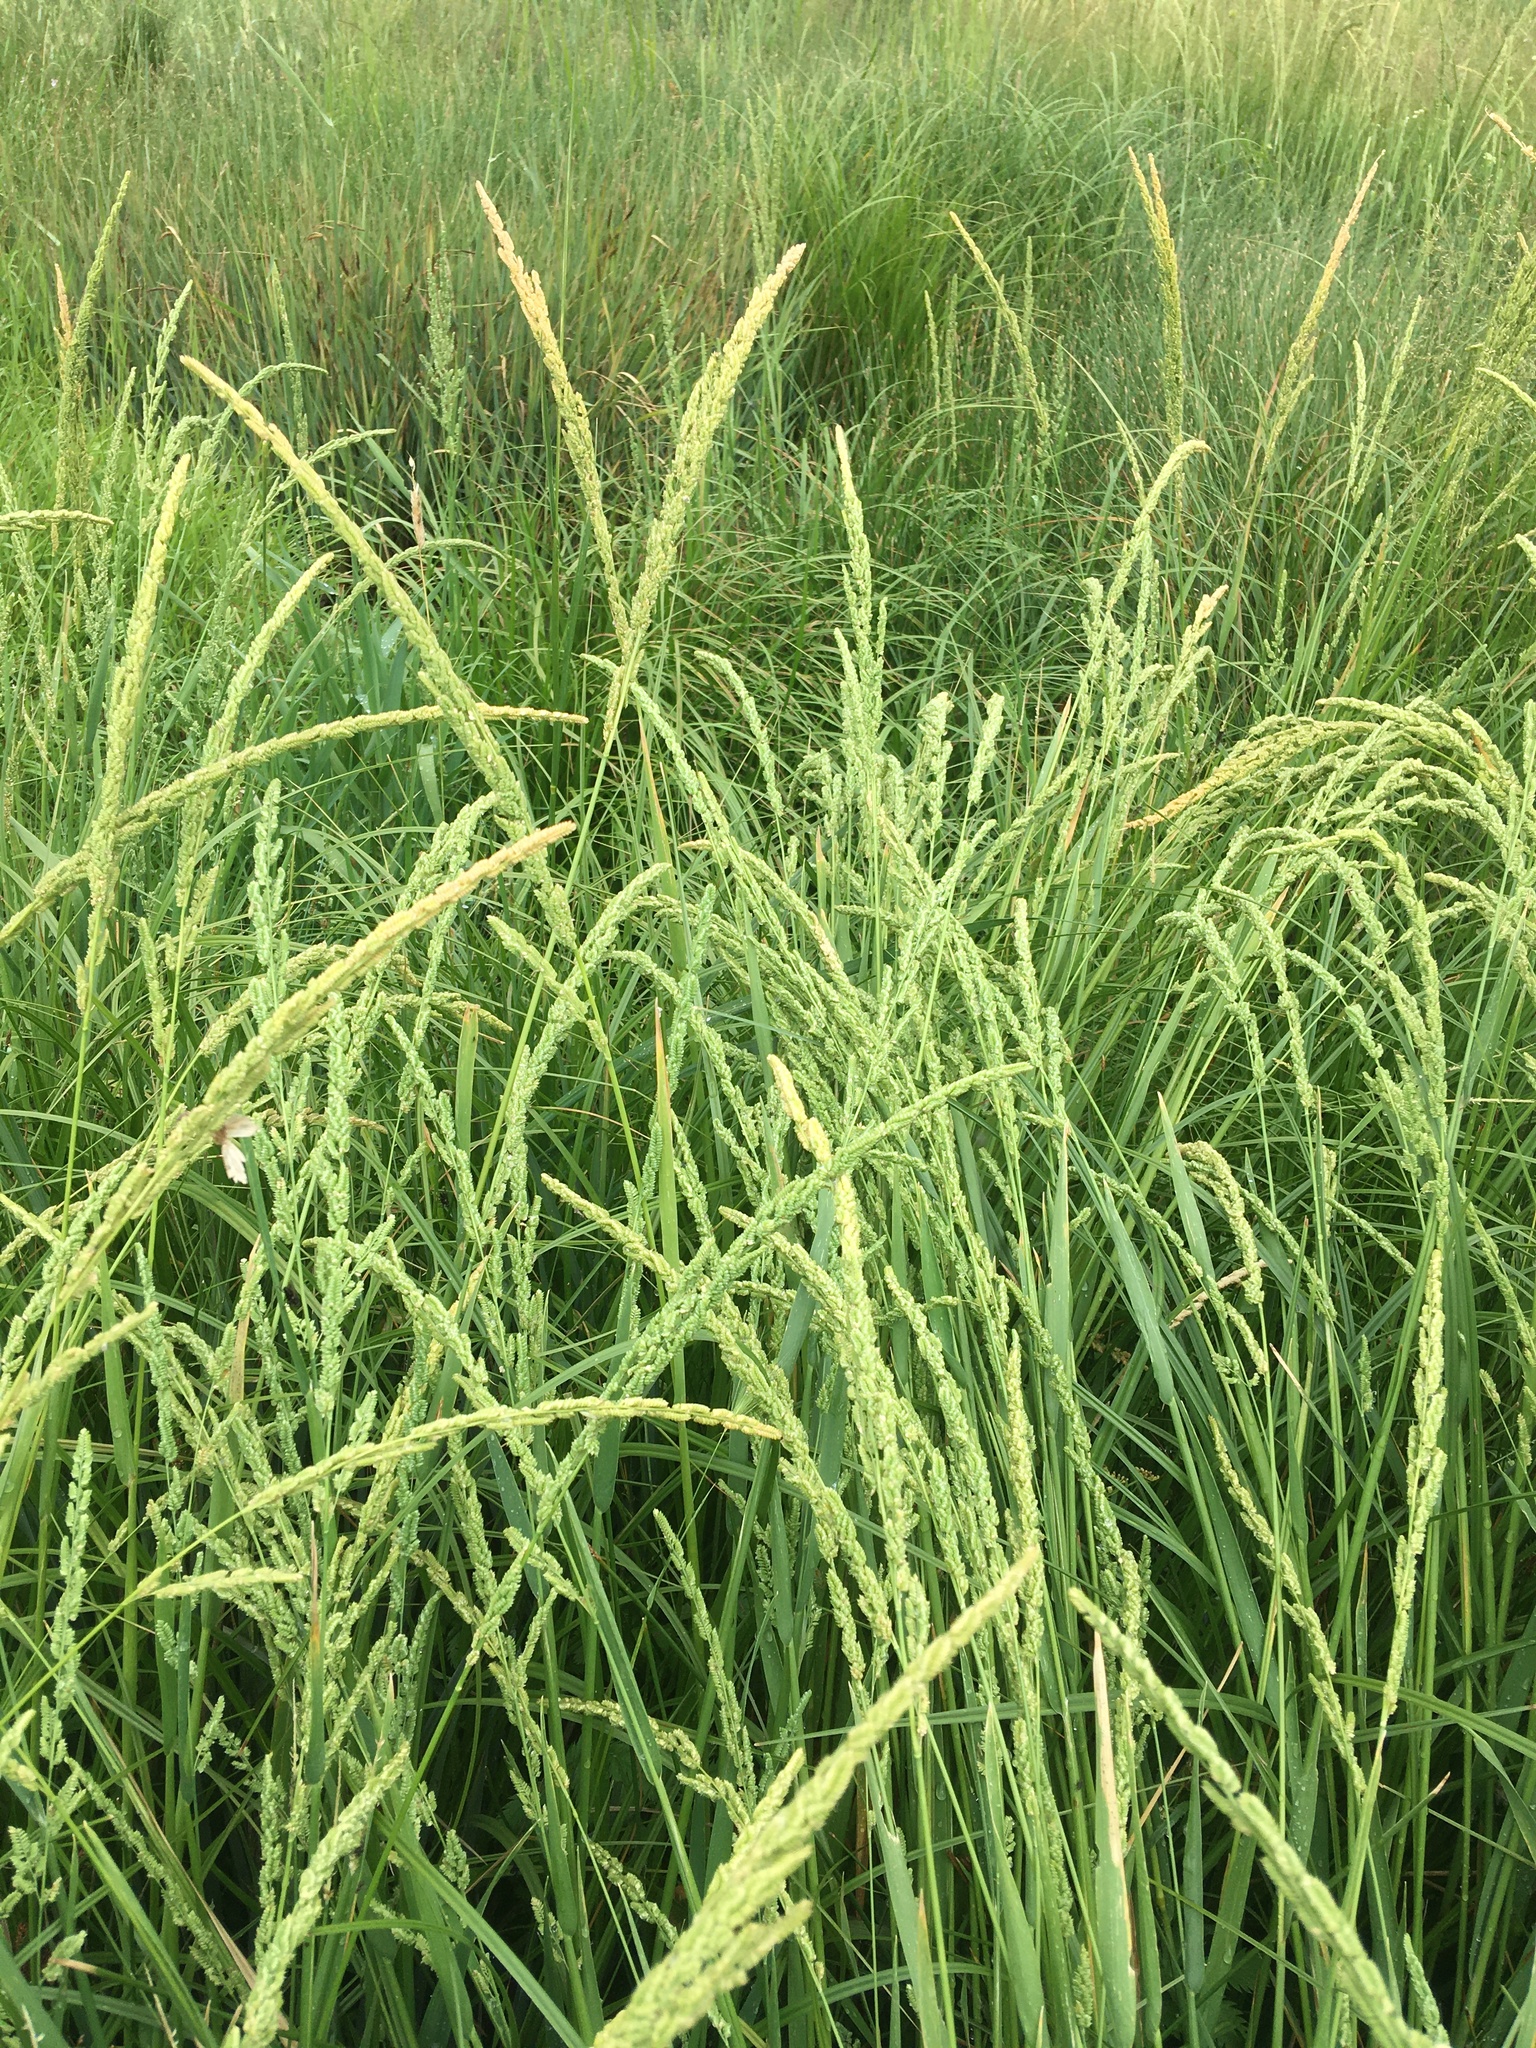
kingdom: Plantae
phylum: Tracheophyta
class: Liliopsida
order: Poales
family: Poaceae
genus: Beckmannia
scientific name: Beckmannia syzigachne
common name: American slough-grass
